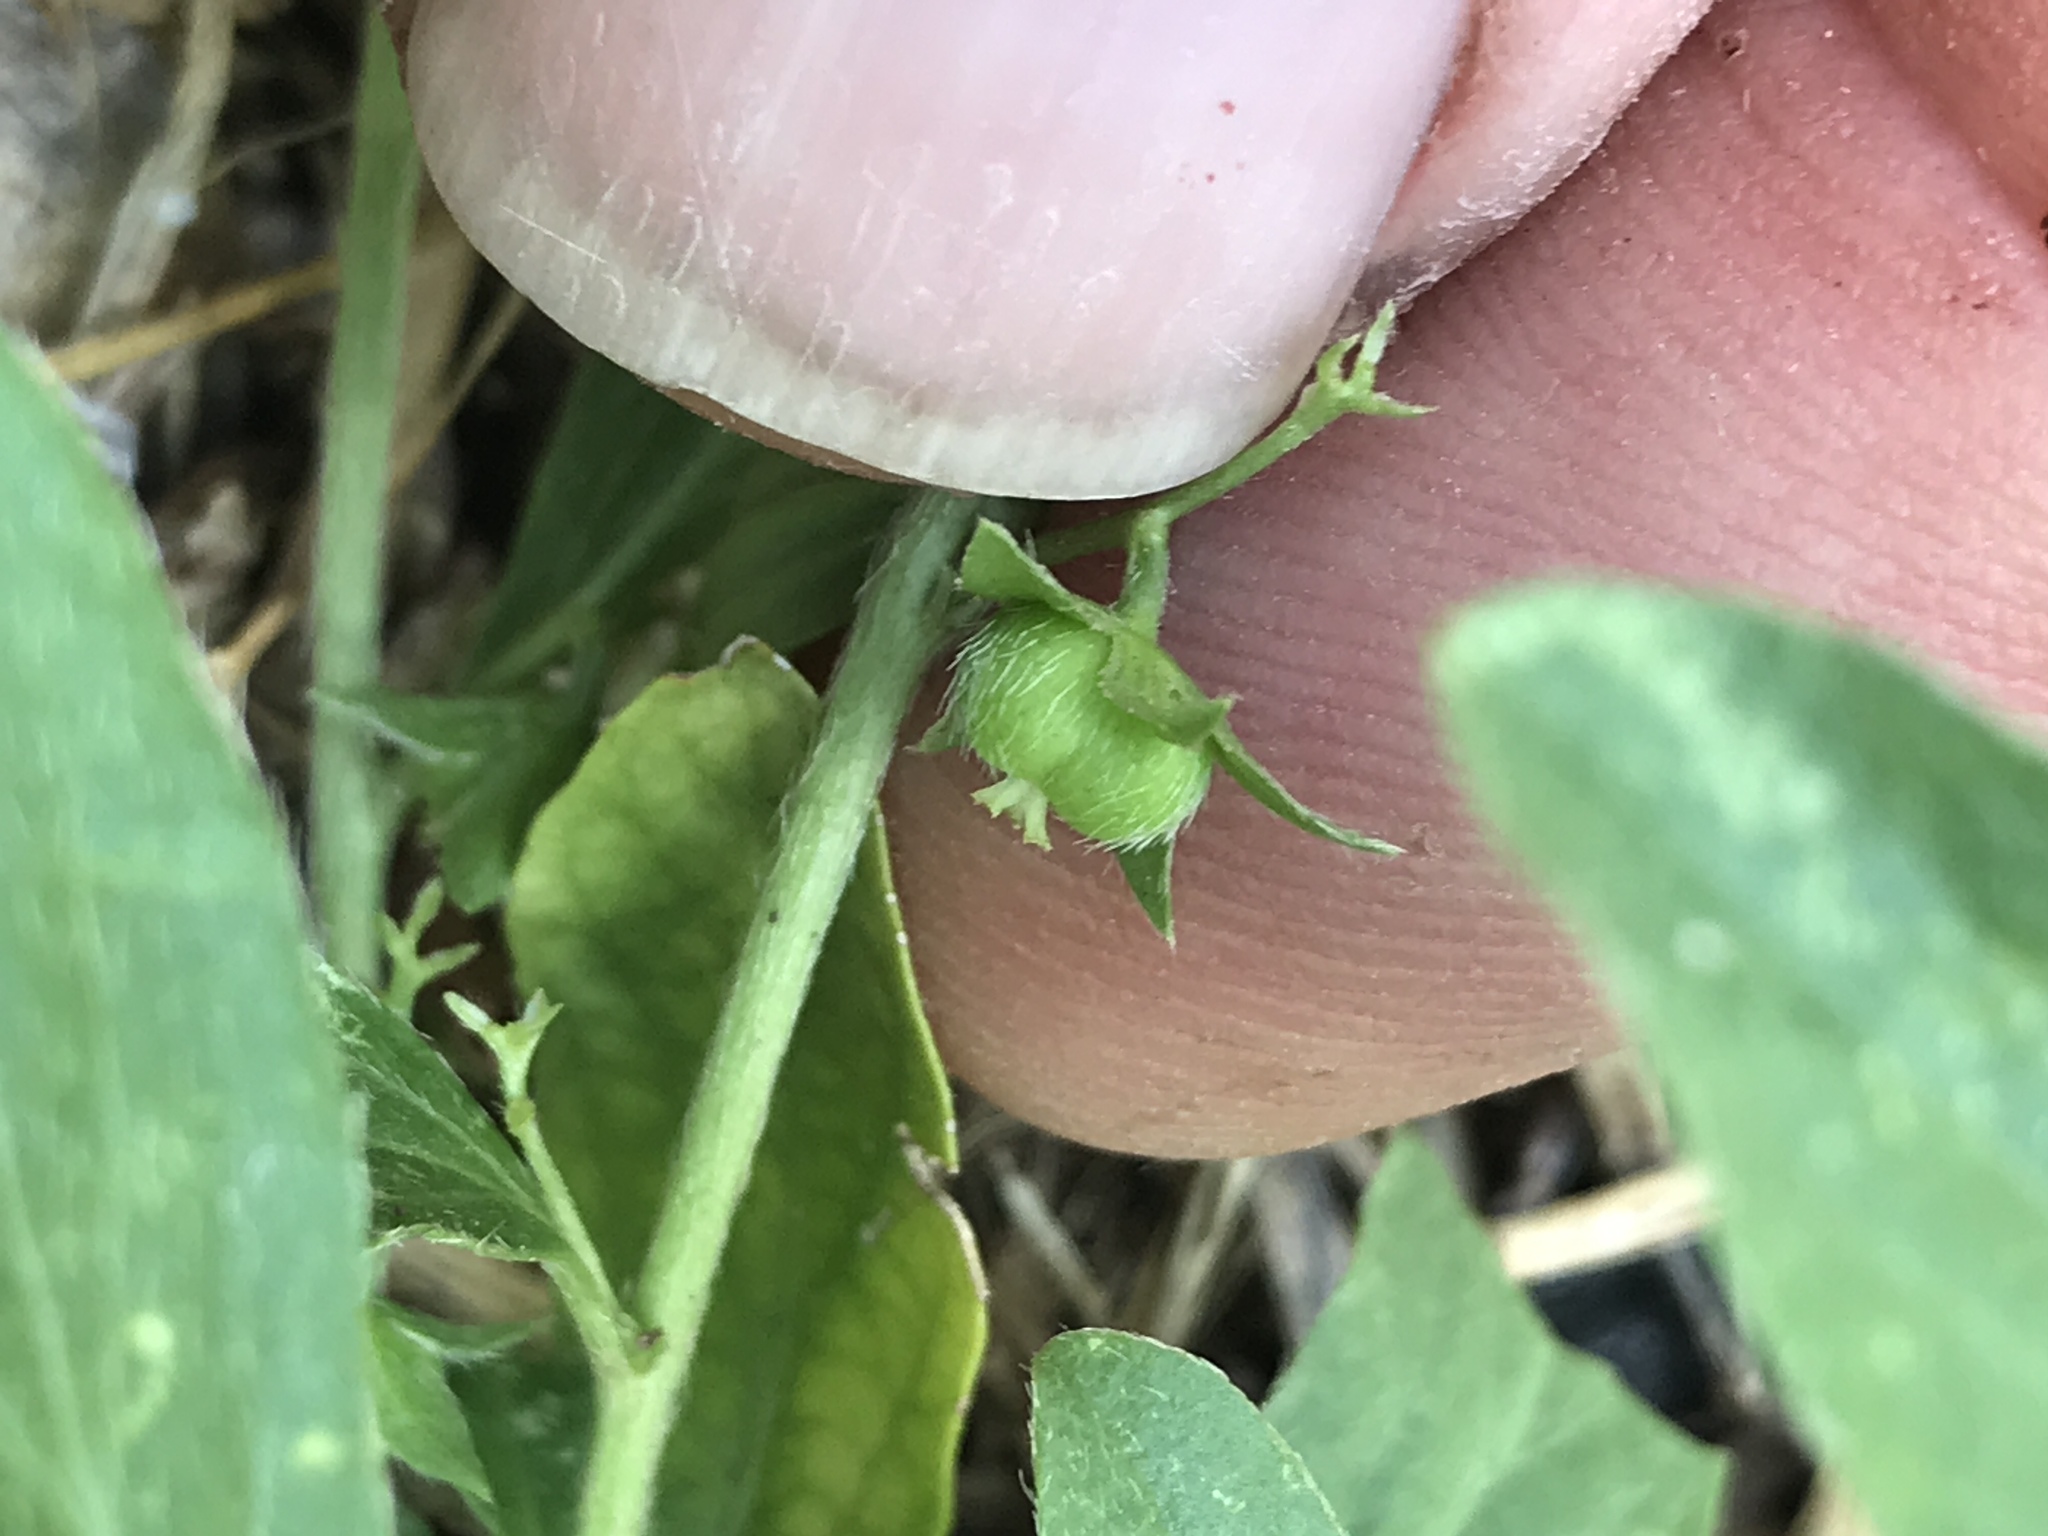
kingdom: Plantae
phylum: Tracheophyta
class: Magnoliopsida
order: Malpighiales
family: Euphorbiaceae
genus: Ditaxis
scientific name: Ditaxis humilis
